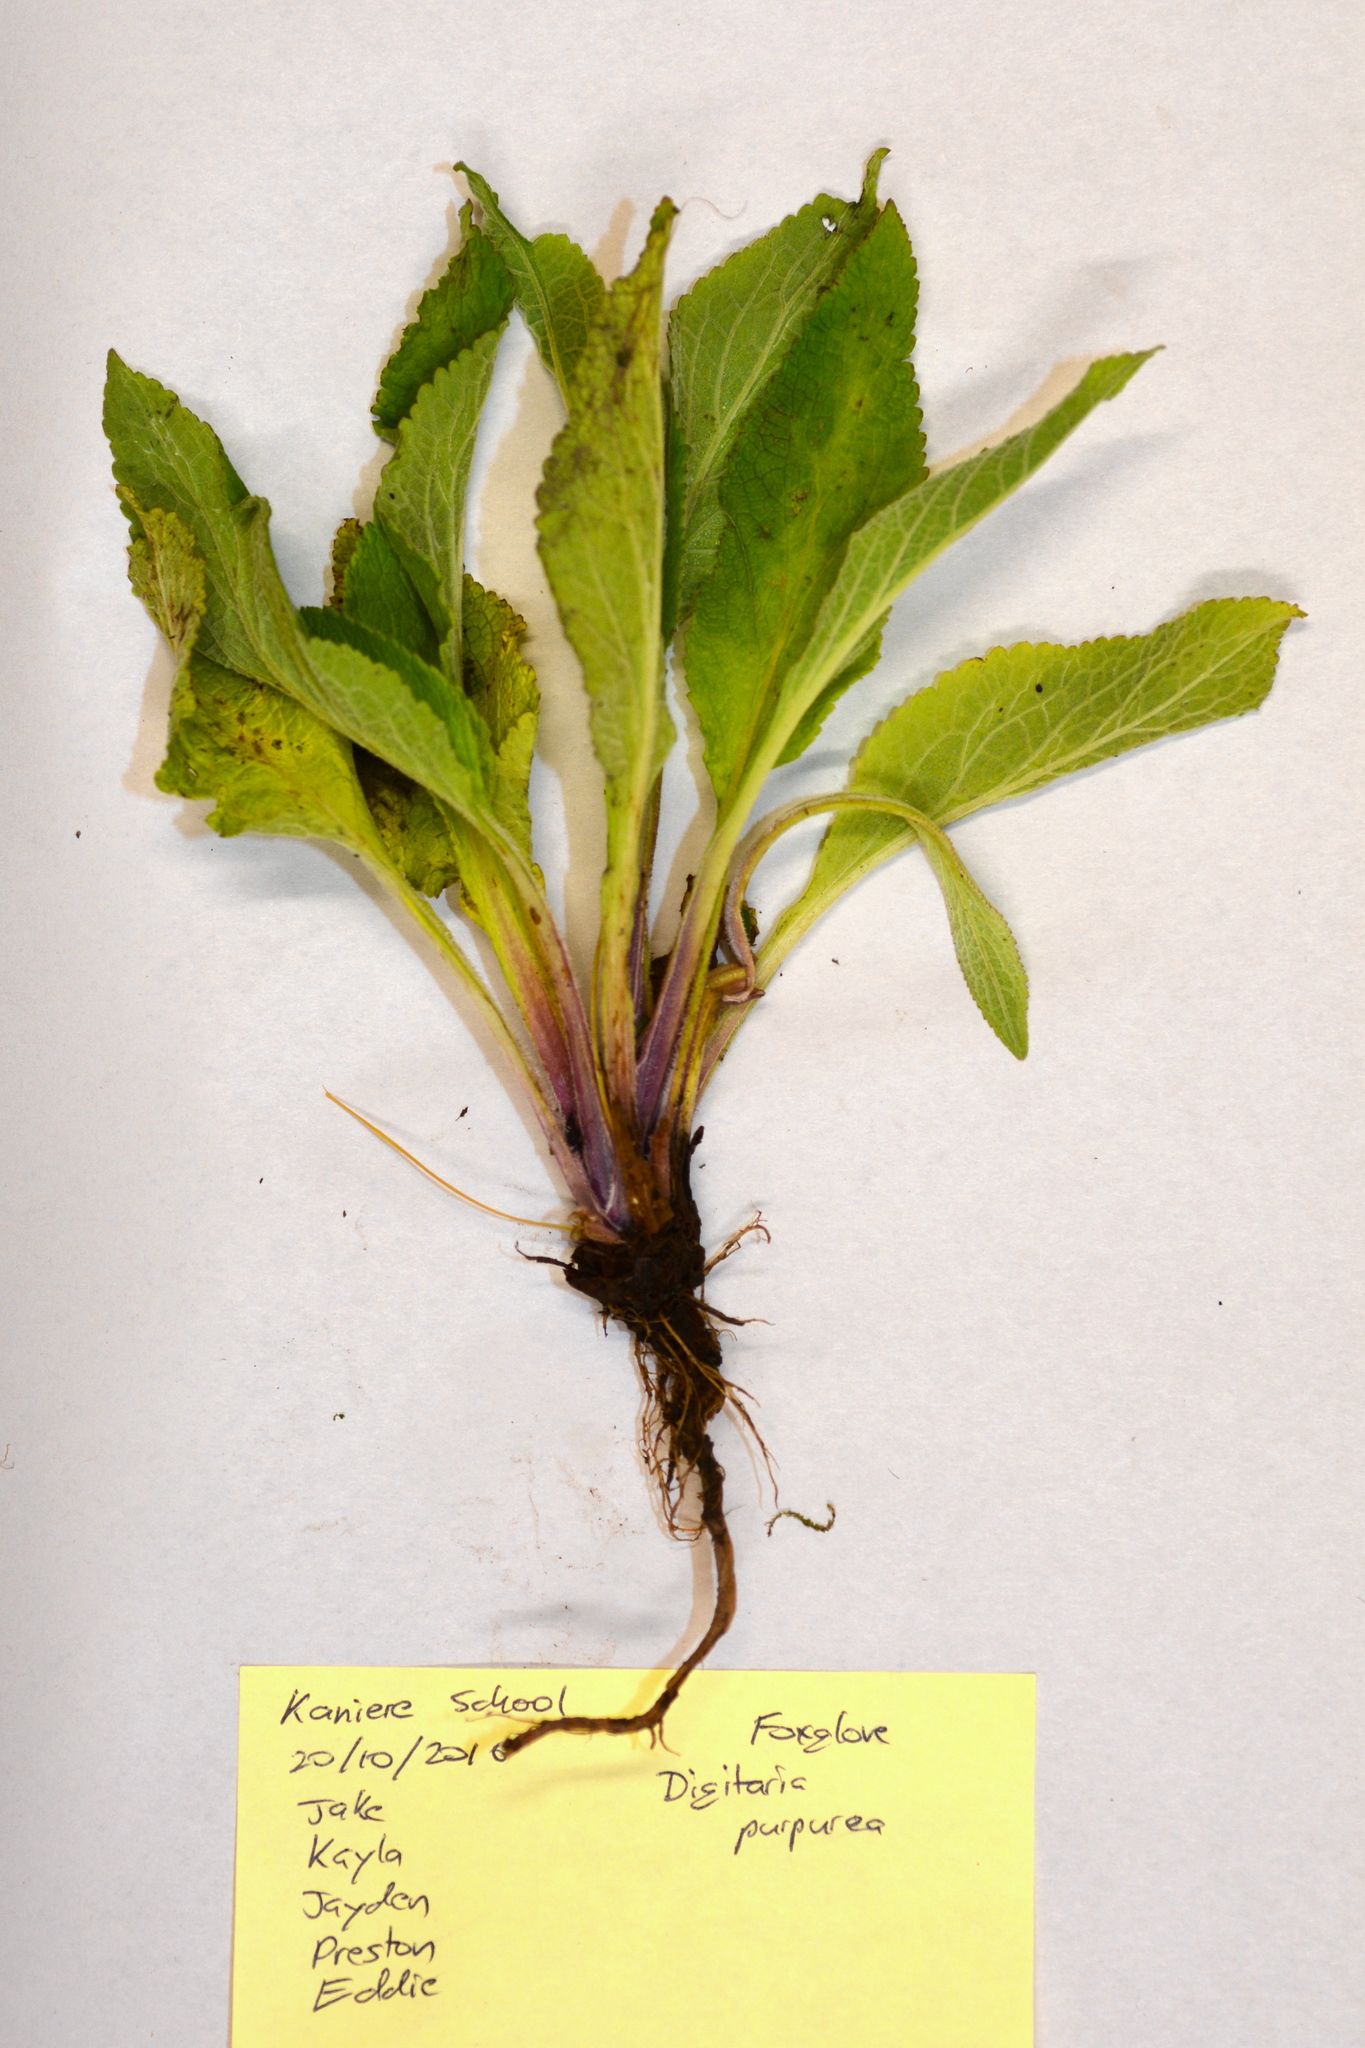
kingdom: Plantae
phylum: Tracheophyta
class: Magnoliopsida
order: Lamiales
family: Plantaginaceae
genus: Digitalis
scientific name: Digitalis purpurea
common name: Foxglove
